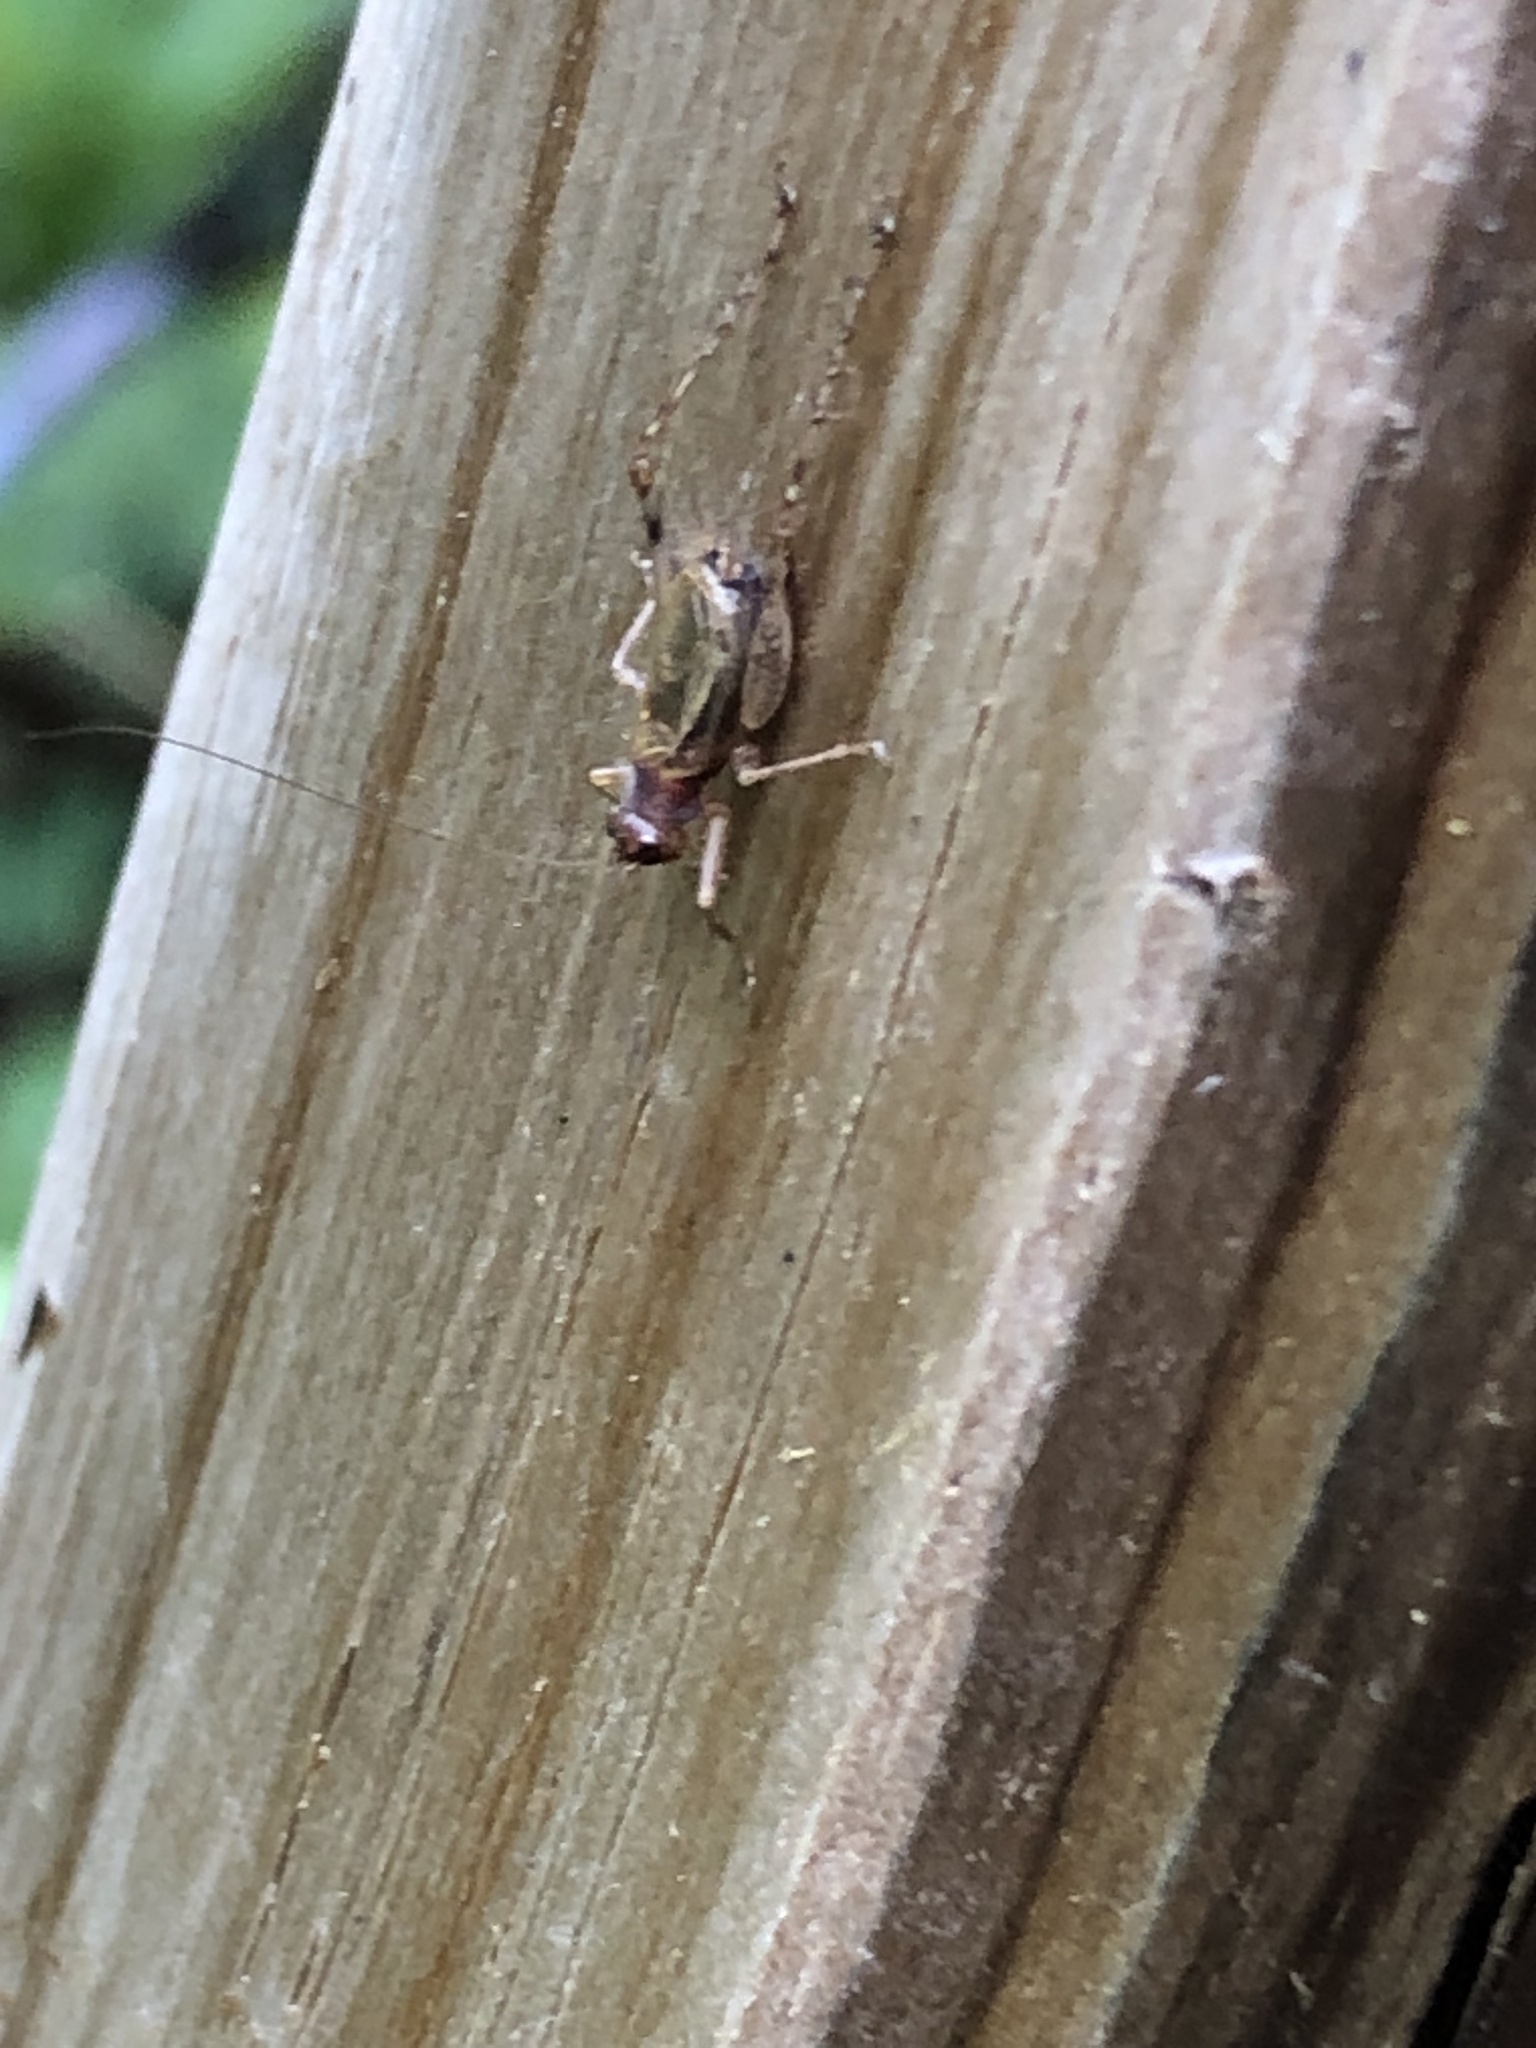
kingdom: Animalia
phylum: Arthropoda
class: Insecta
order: Orthoptera
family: Trigonidiidae
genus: Anaxipha
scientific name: Anaxipha exigua
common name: Say's bush cricket
